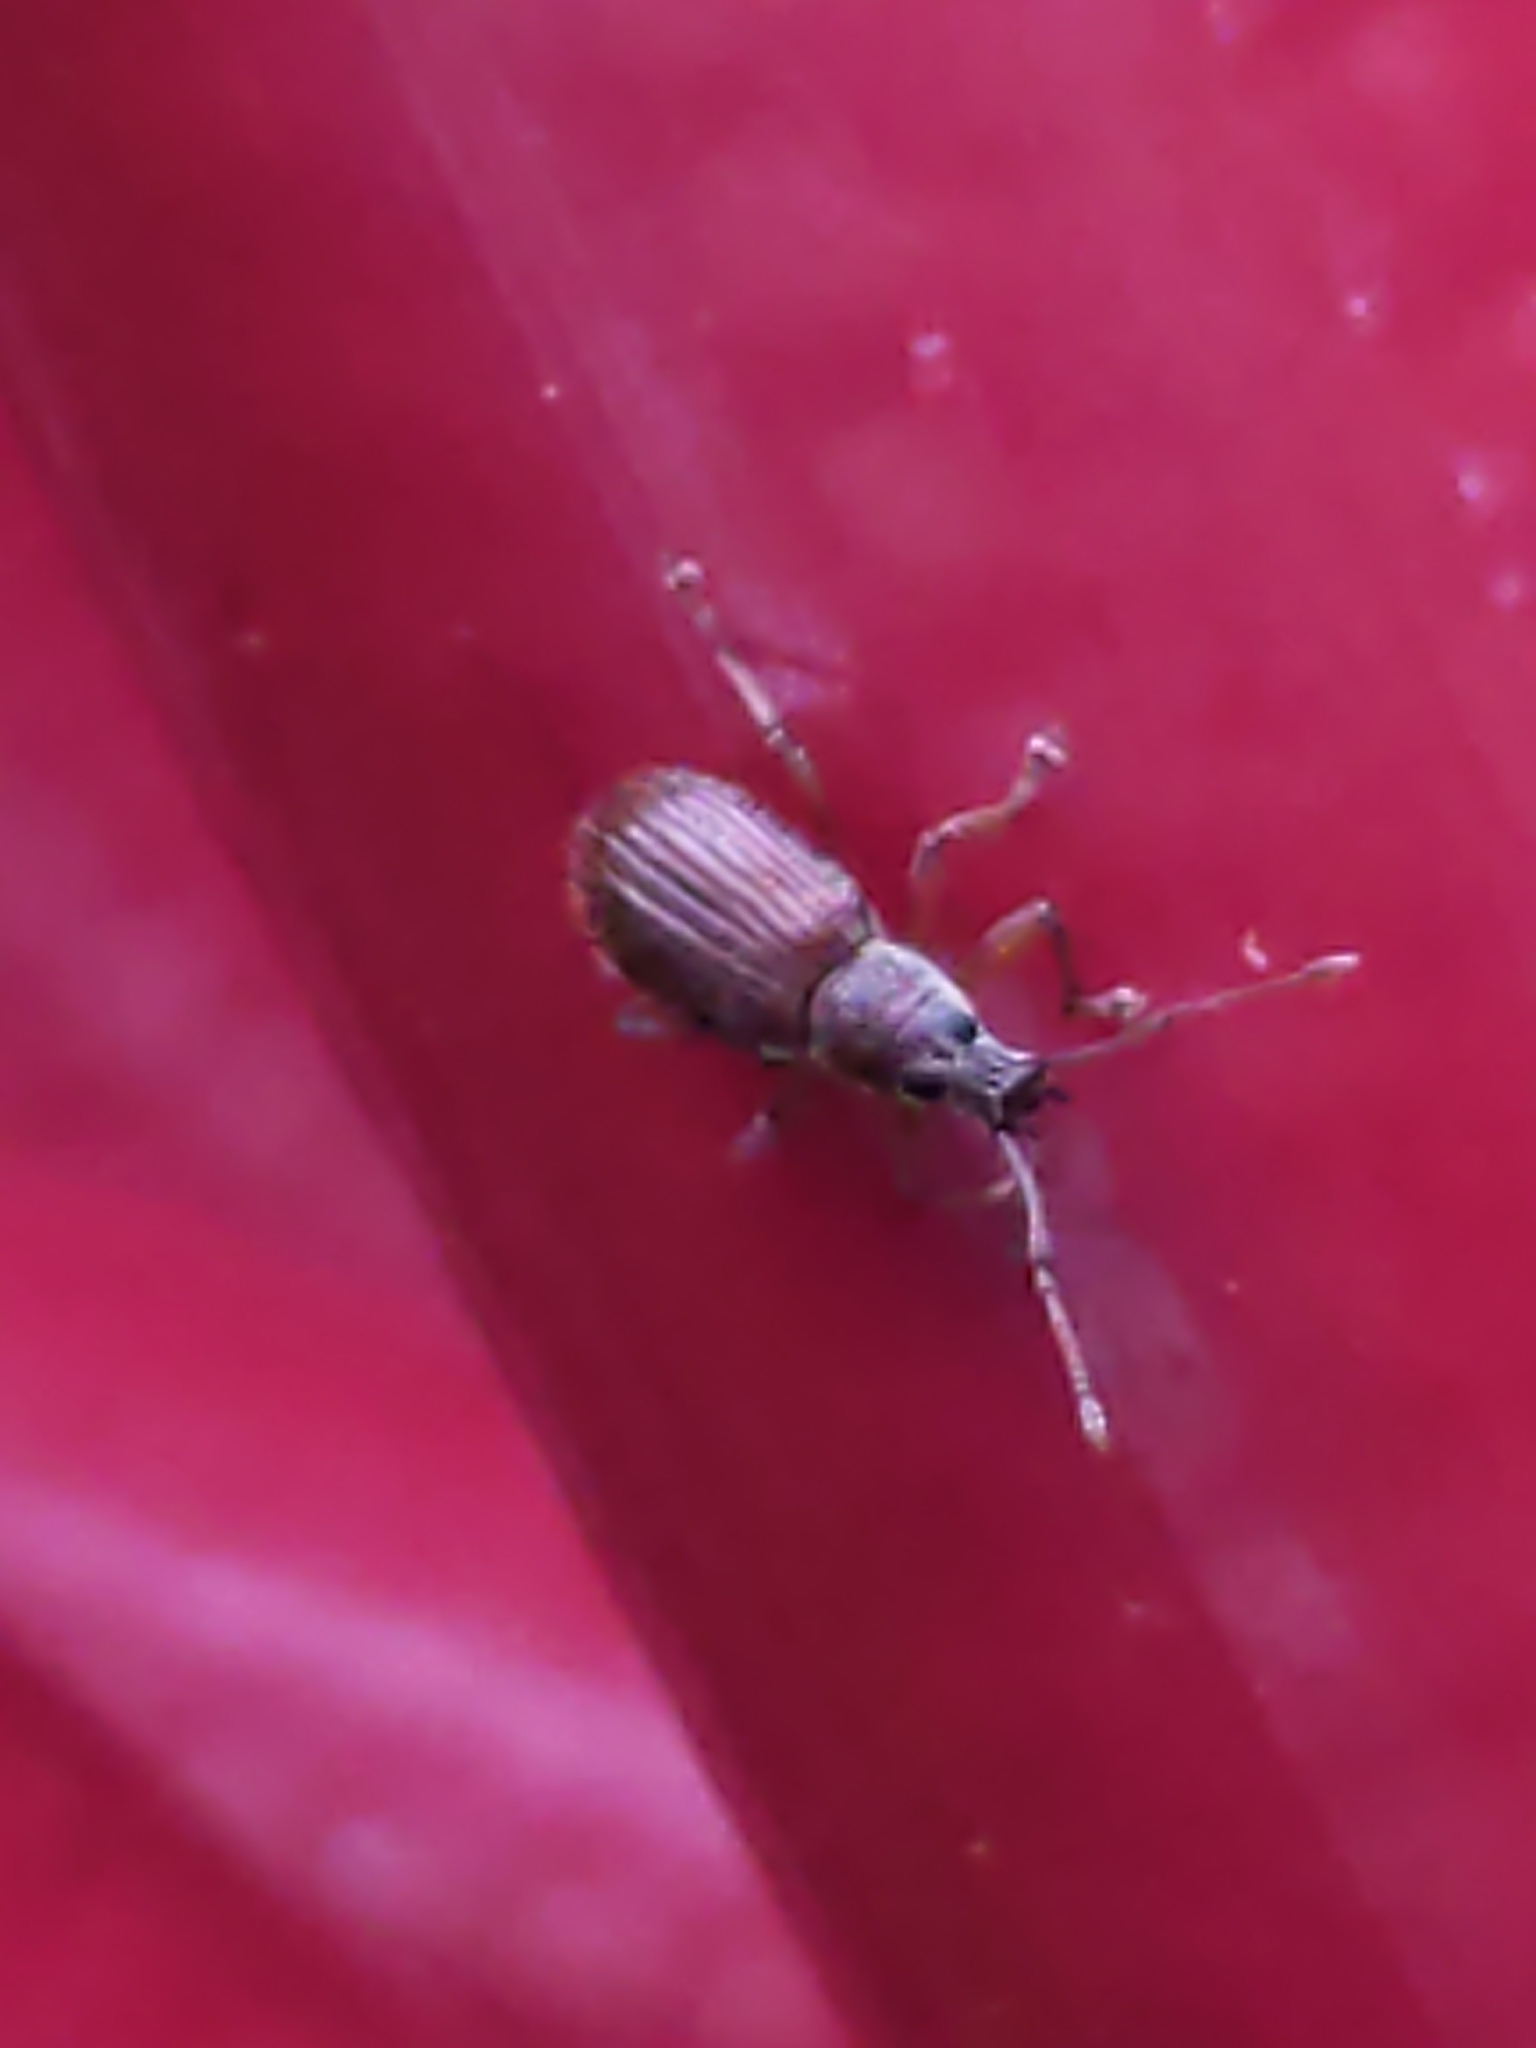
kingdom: Animalia
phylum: Arthropoda
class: Insecta
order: Coleoptera
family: Curculionidae
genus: Cyrtepistomus
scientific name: Cyrtepistomus castaneus
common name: Weevil
